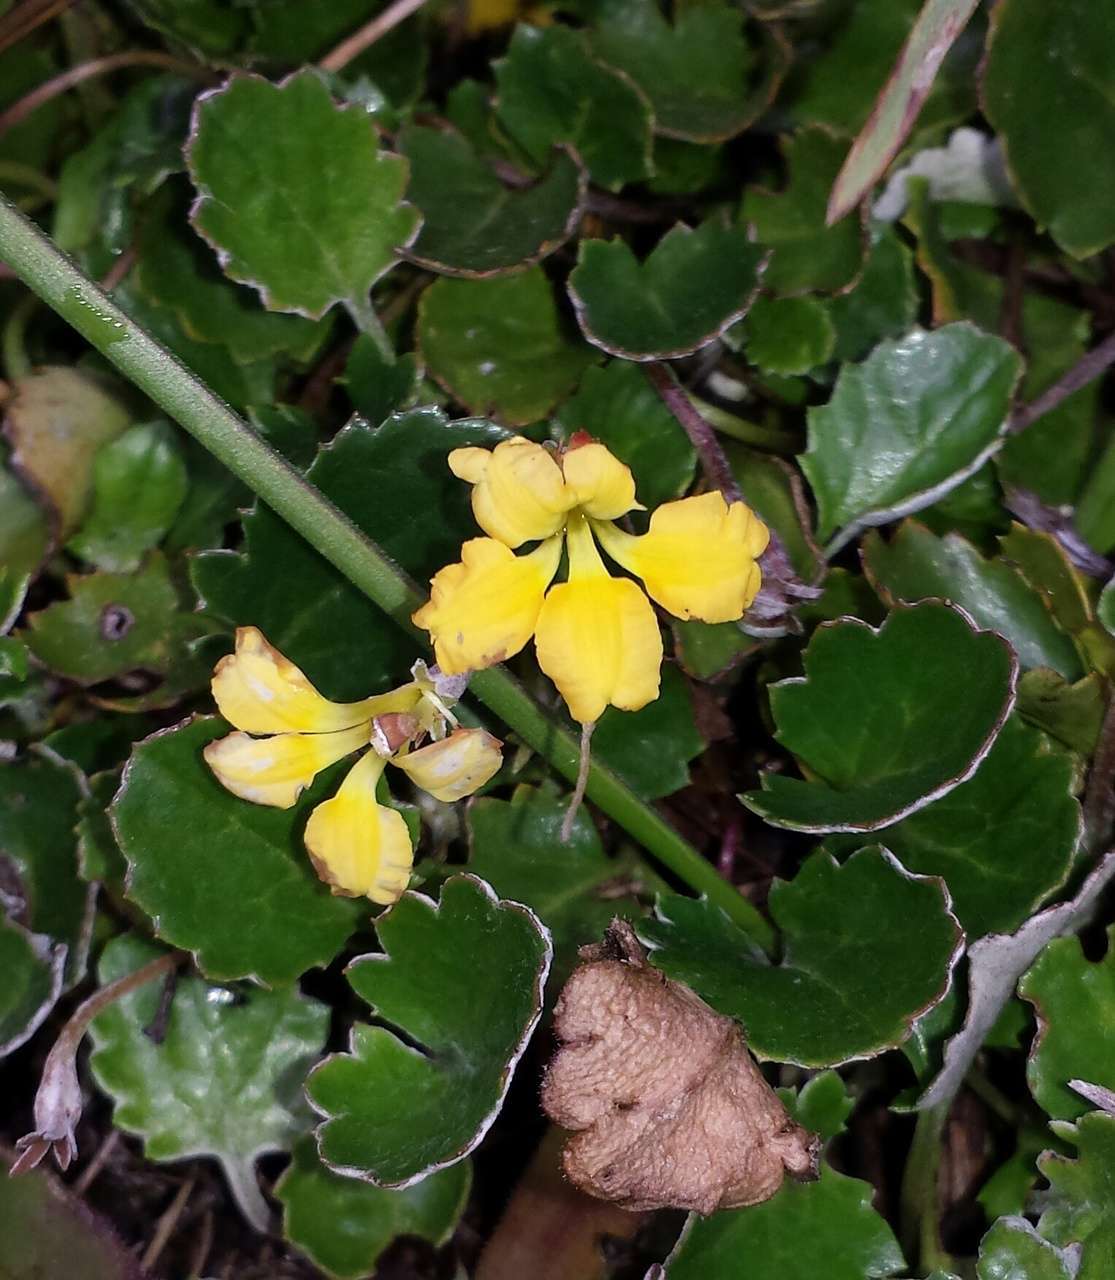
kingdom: Plantae
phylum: Tracheophyta
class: Magnoliopsida
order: Asterales
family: Goodeniaceae
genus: Goodenia
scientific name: Goodenia hederacea
